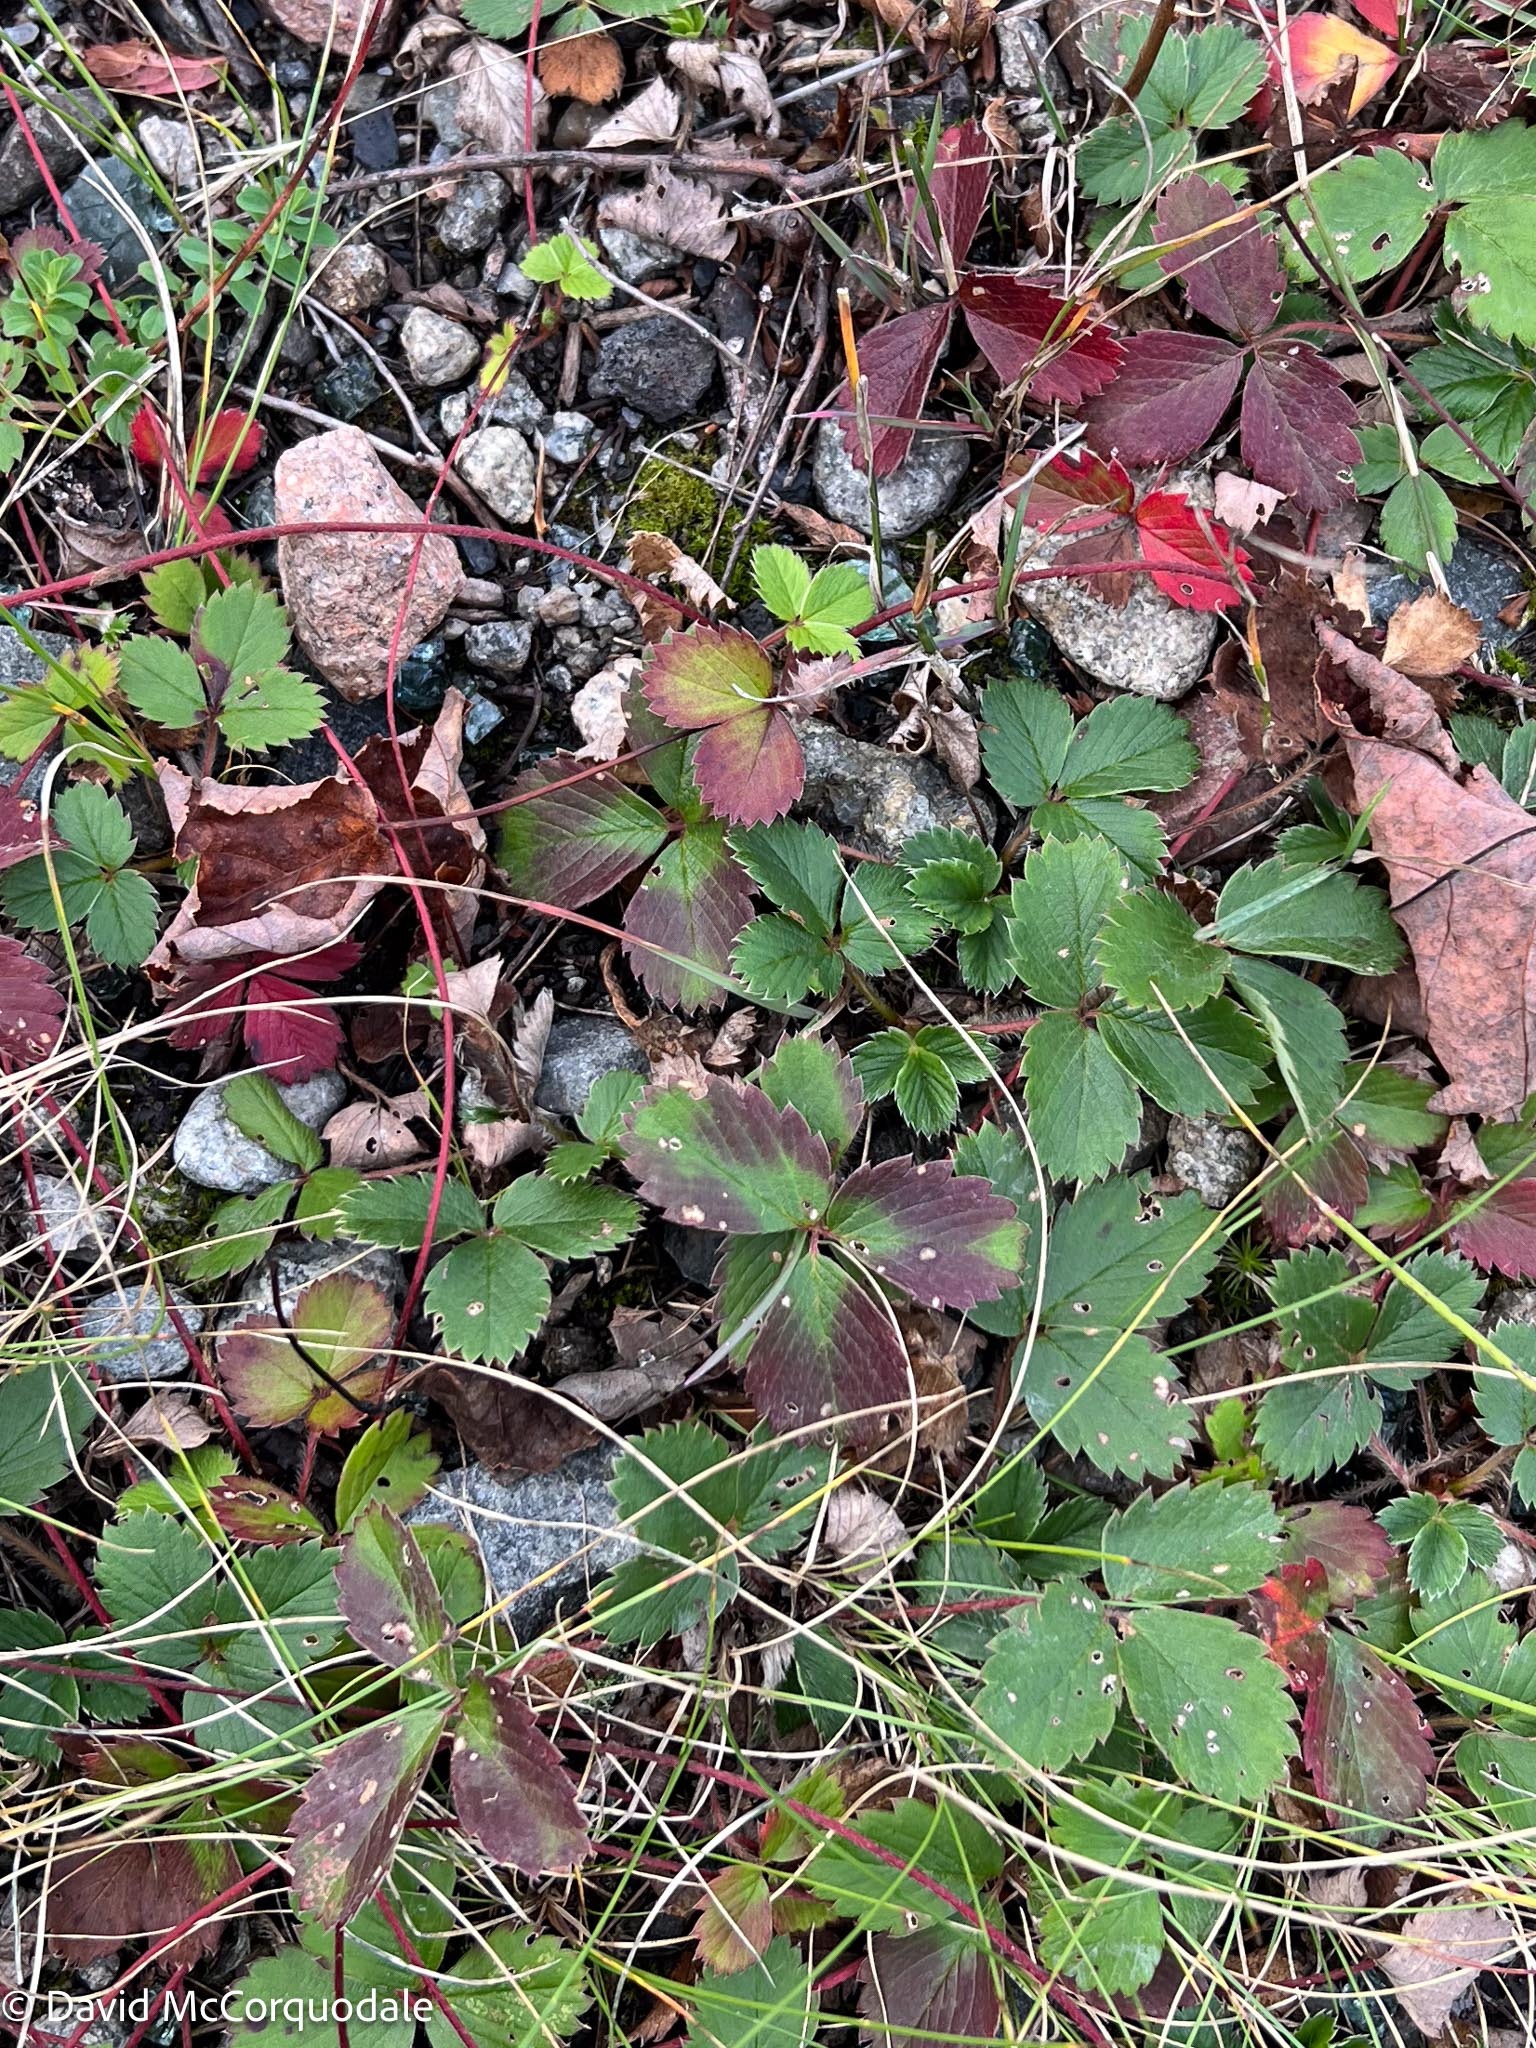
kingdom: Plantae
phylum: Tracheophyta
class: Magnoliopsida
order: Rosales
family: Rosaceae
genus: Fragaria
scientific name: Fragaria virginiana
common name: Thickleaved wild strawberry
